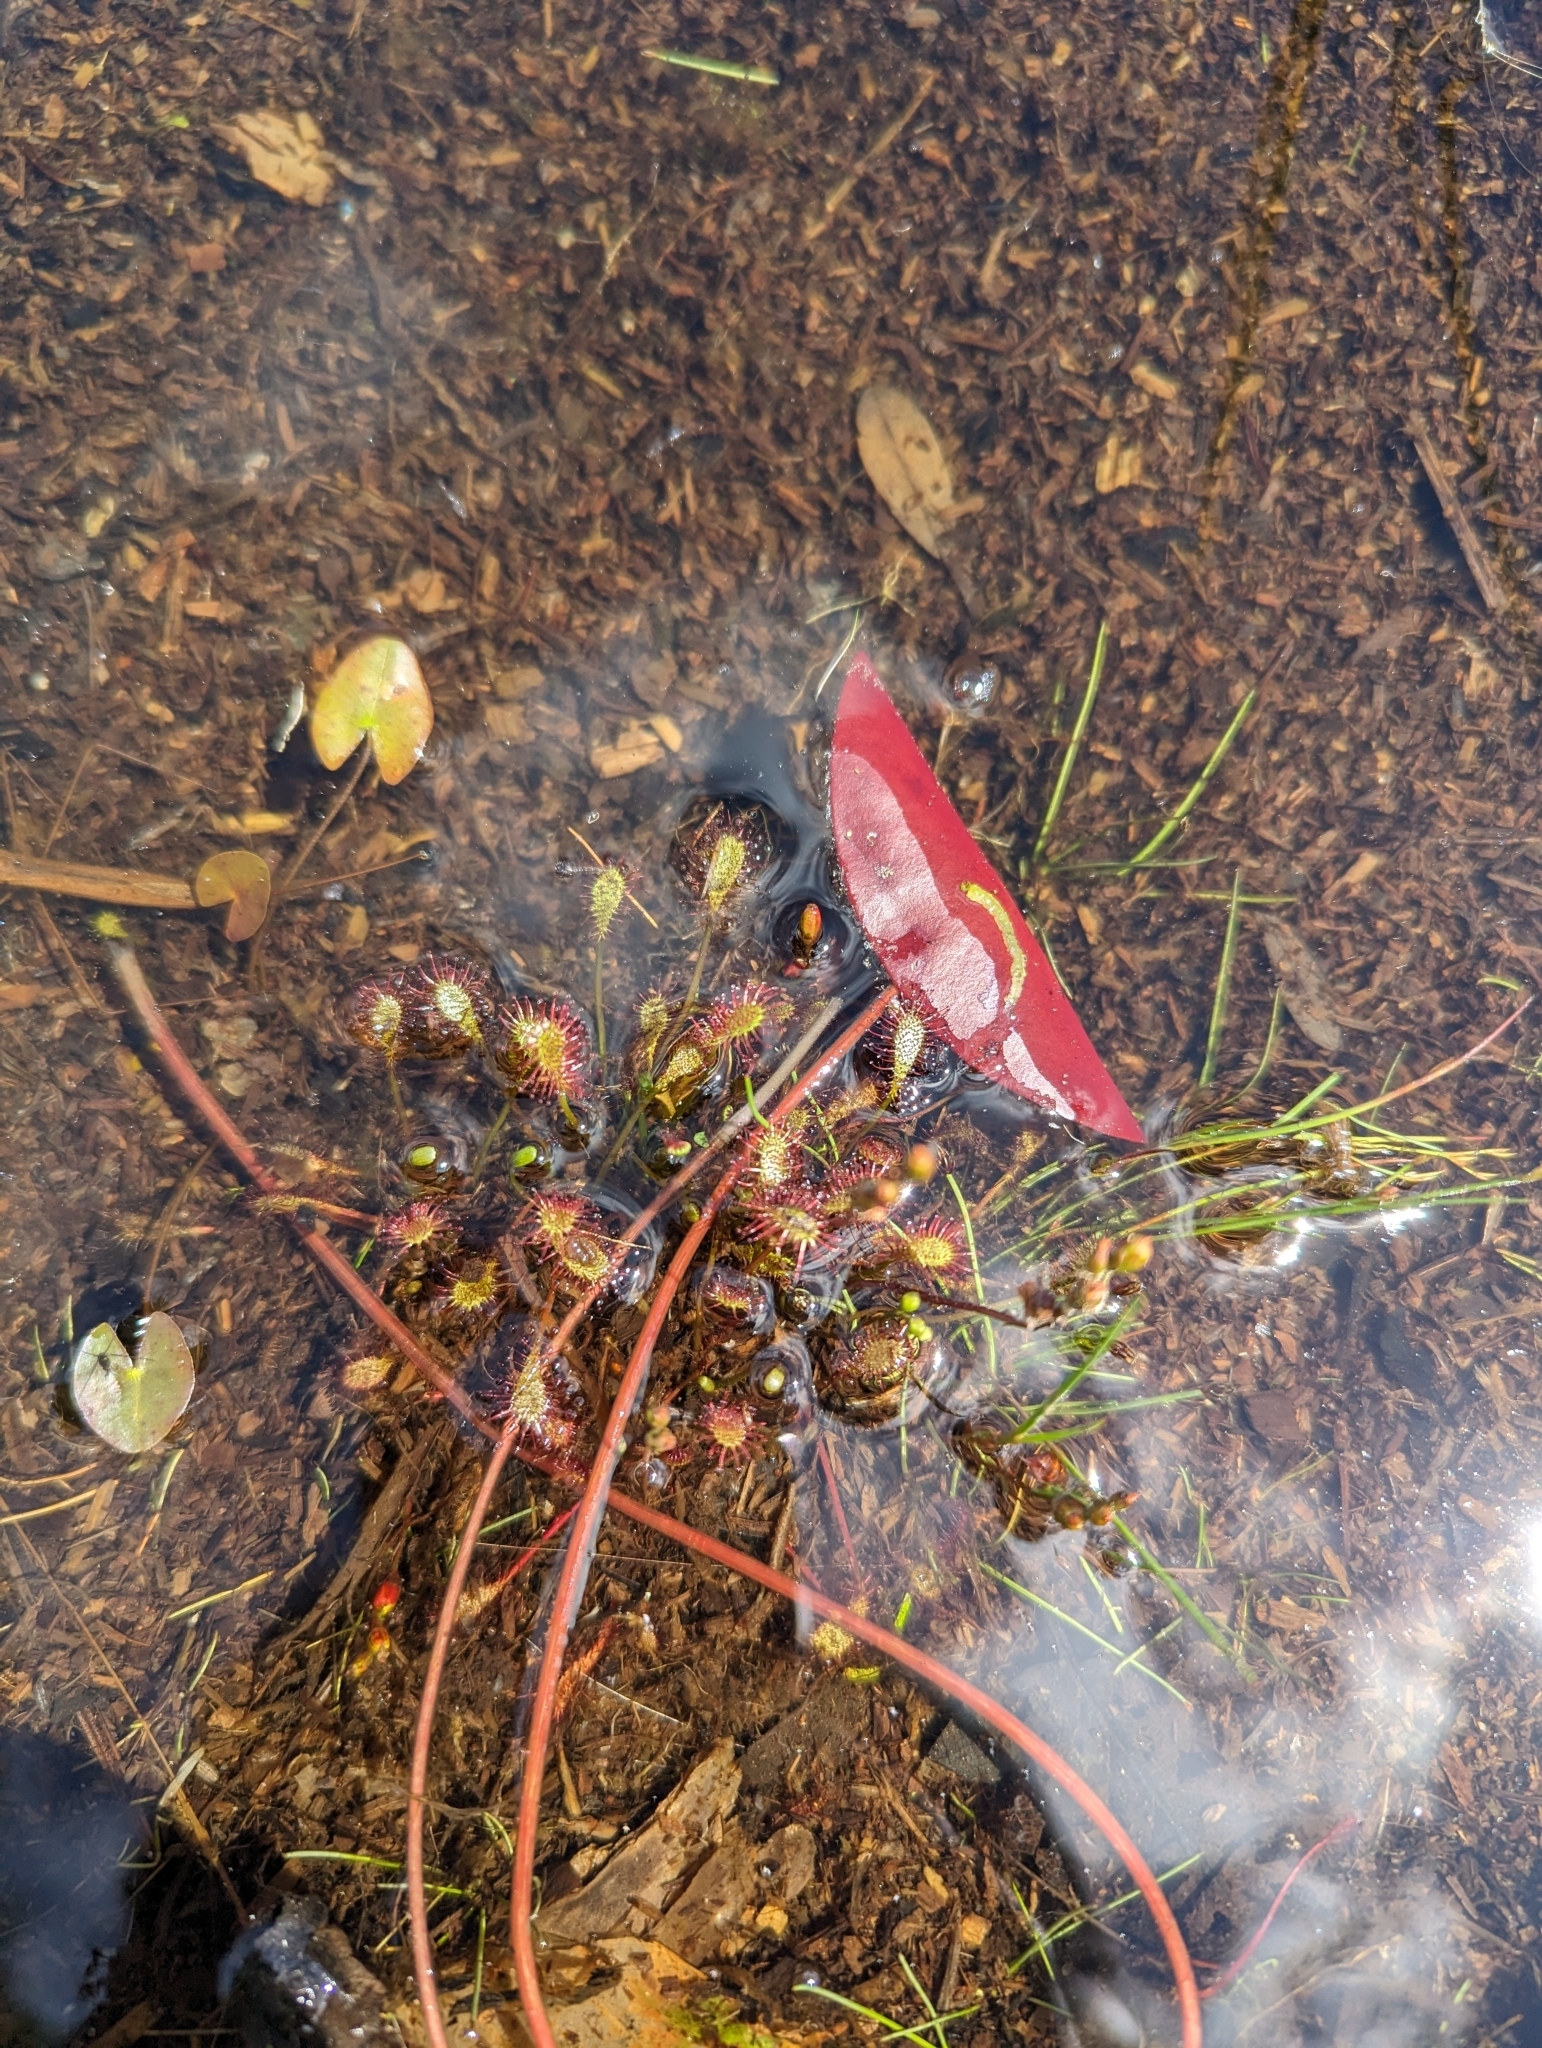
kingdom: Plantae
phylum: Tracheophyta
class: Magnoliopsida
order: Caryophyllales
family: Droseraceae
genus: Drosera
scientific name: Drosera intermedia
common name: Oblong-leaved sundew
